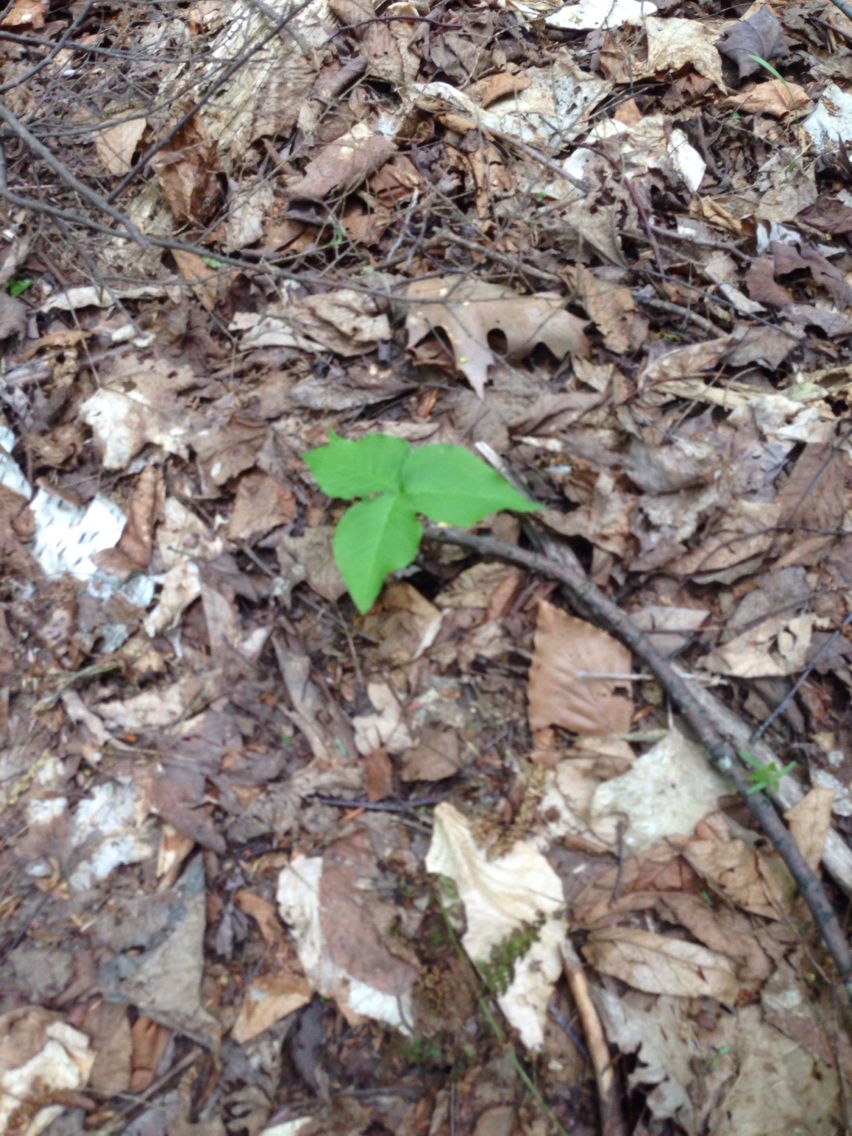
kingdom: Plantae
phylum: Tracheophyta
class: Liliopsida
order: Alismatales
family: Araceae
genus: Arisaema
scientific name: Arisaema triphyllum
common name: Jack-in-the-pulpit
